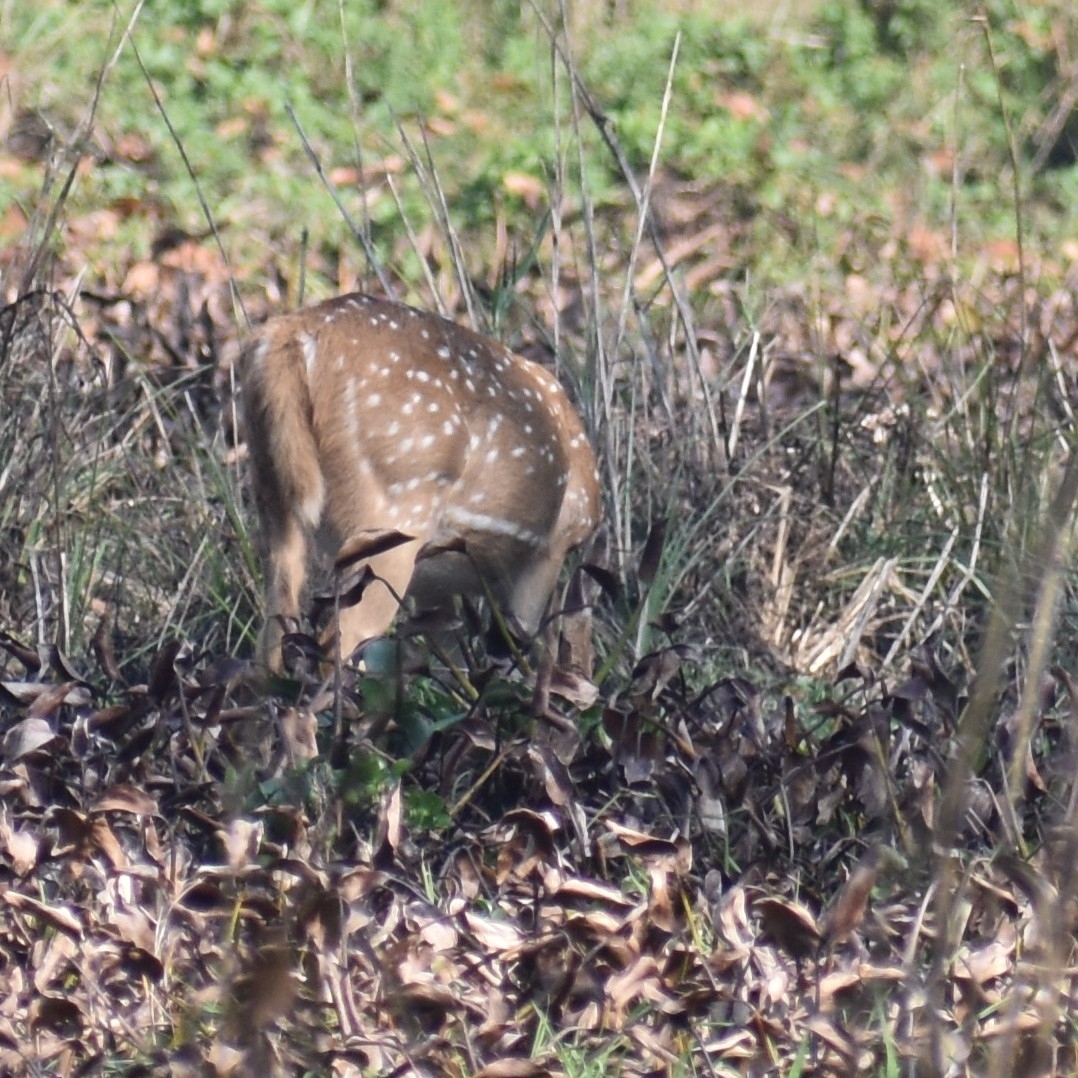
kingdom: Animalia
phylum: Chordata
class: Mammalia
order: Artiodactyla
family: Cervidae
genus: Axis
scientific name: Axis axis
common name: Chital
